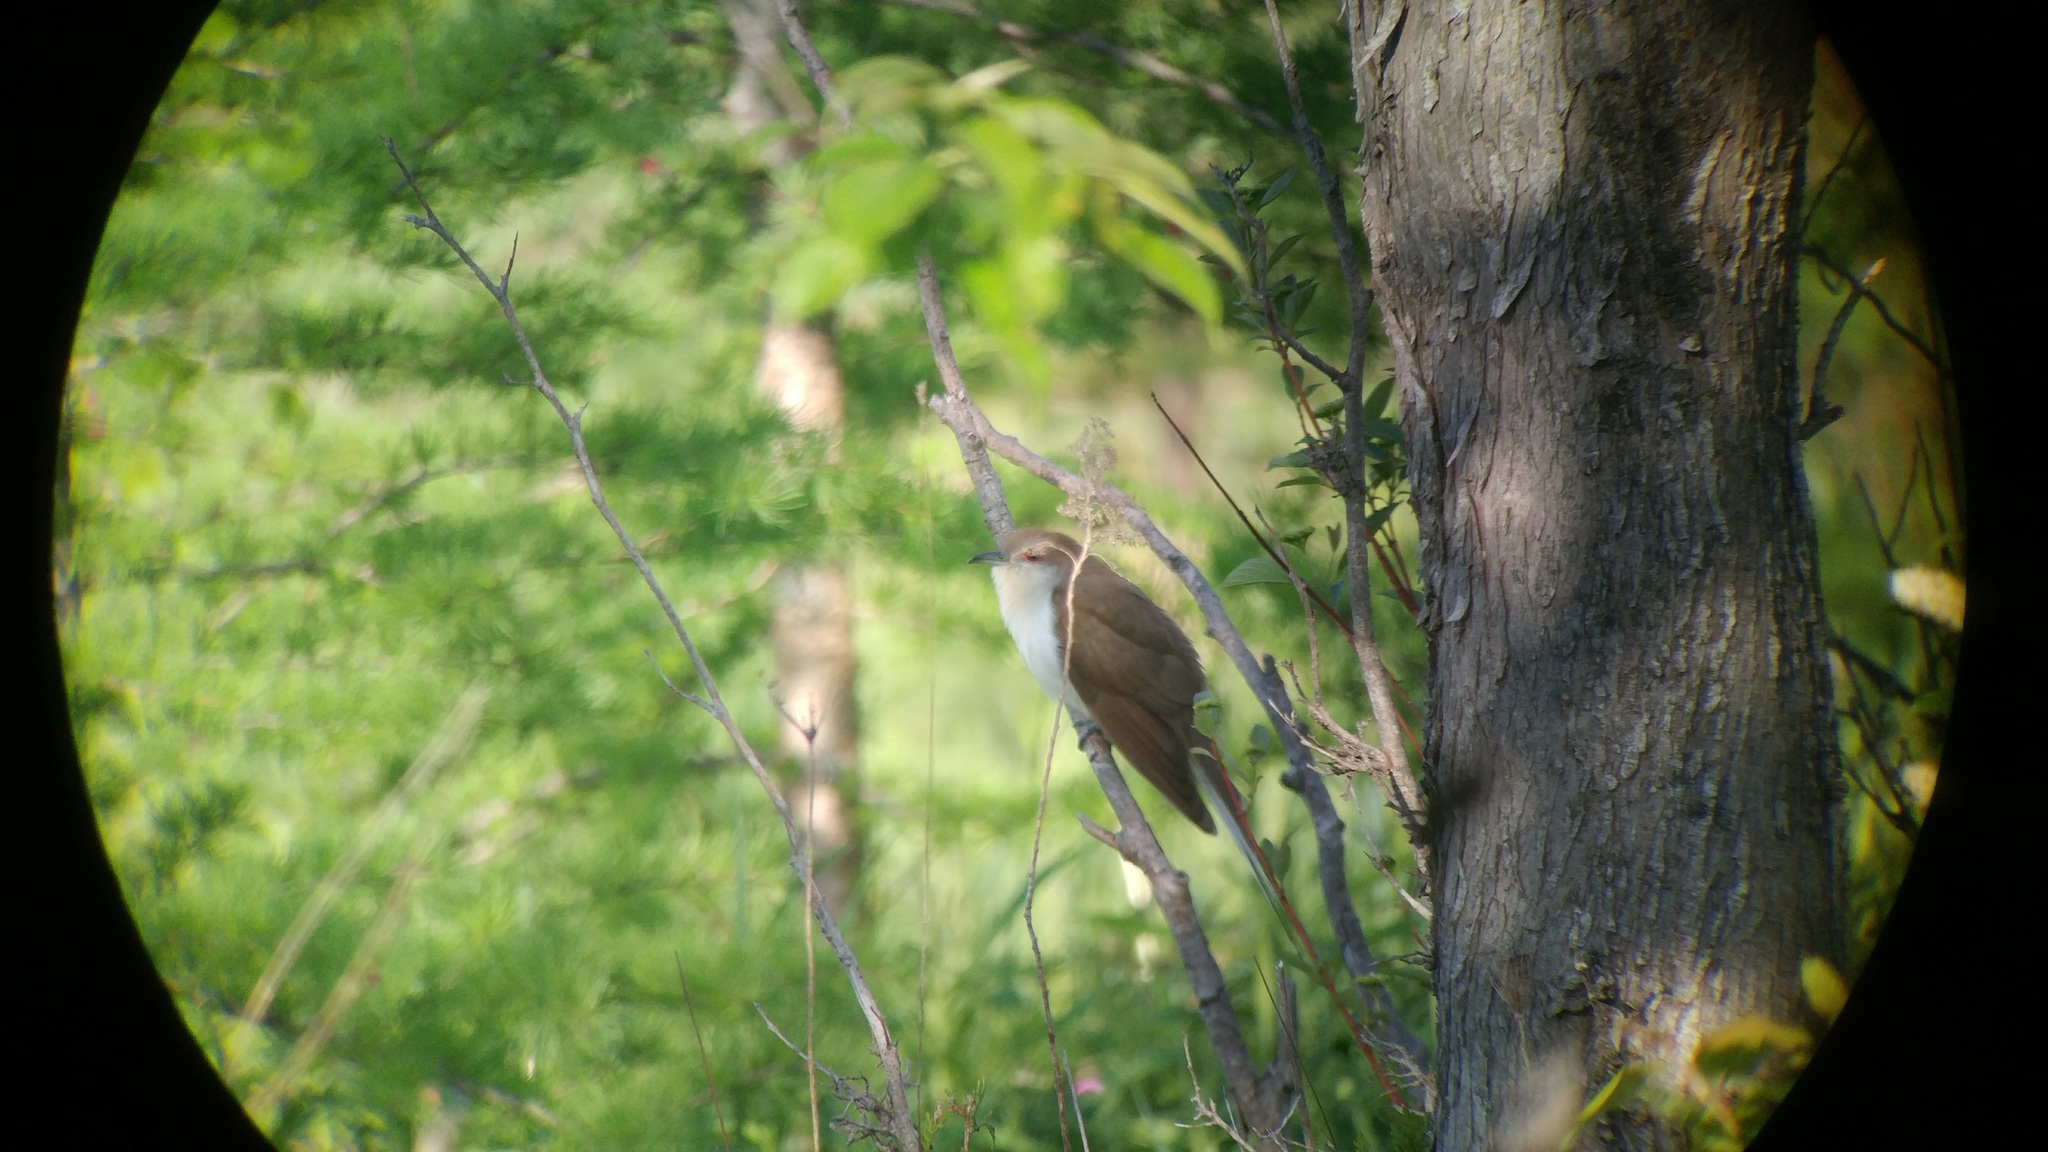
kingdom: Animalia
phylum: Chordata
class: Aves
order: Cuculiformes
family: Cuculidae
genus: Coccyzus
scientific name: Coccyzus erythropthalmus
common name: Black-billed cuckoo
